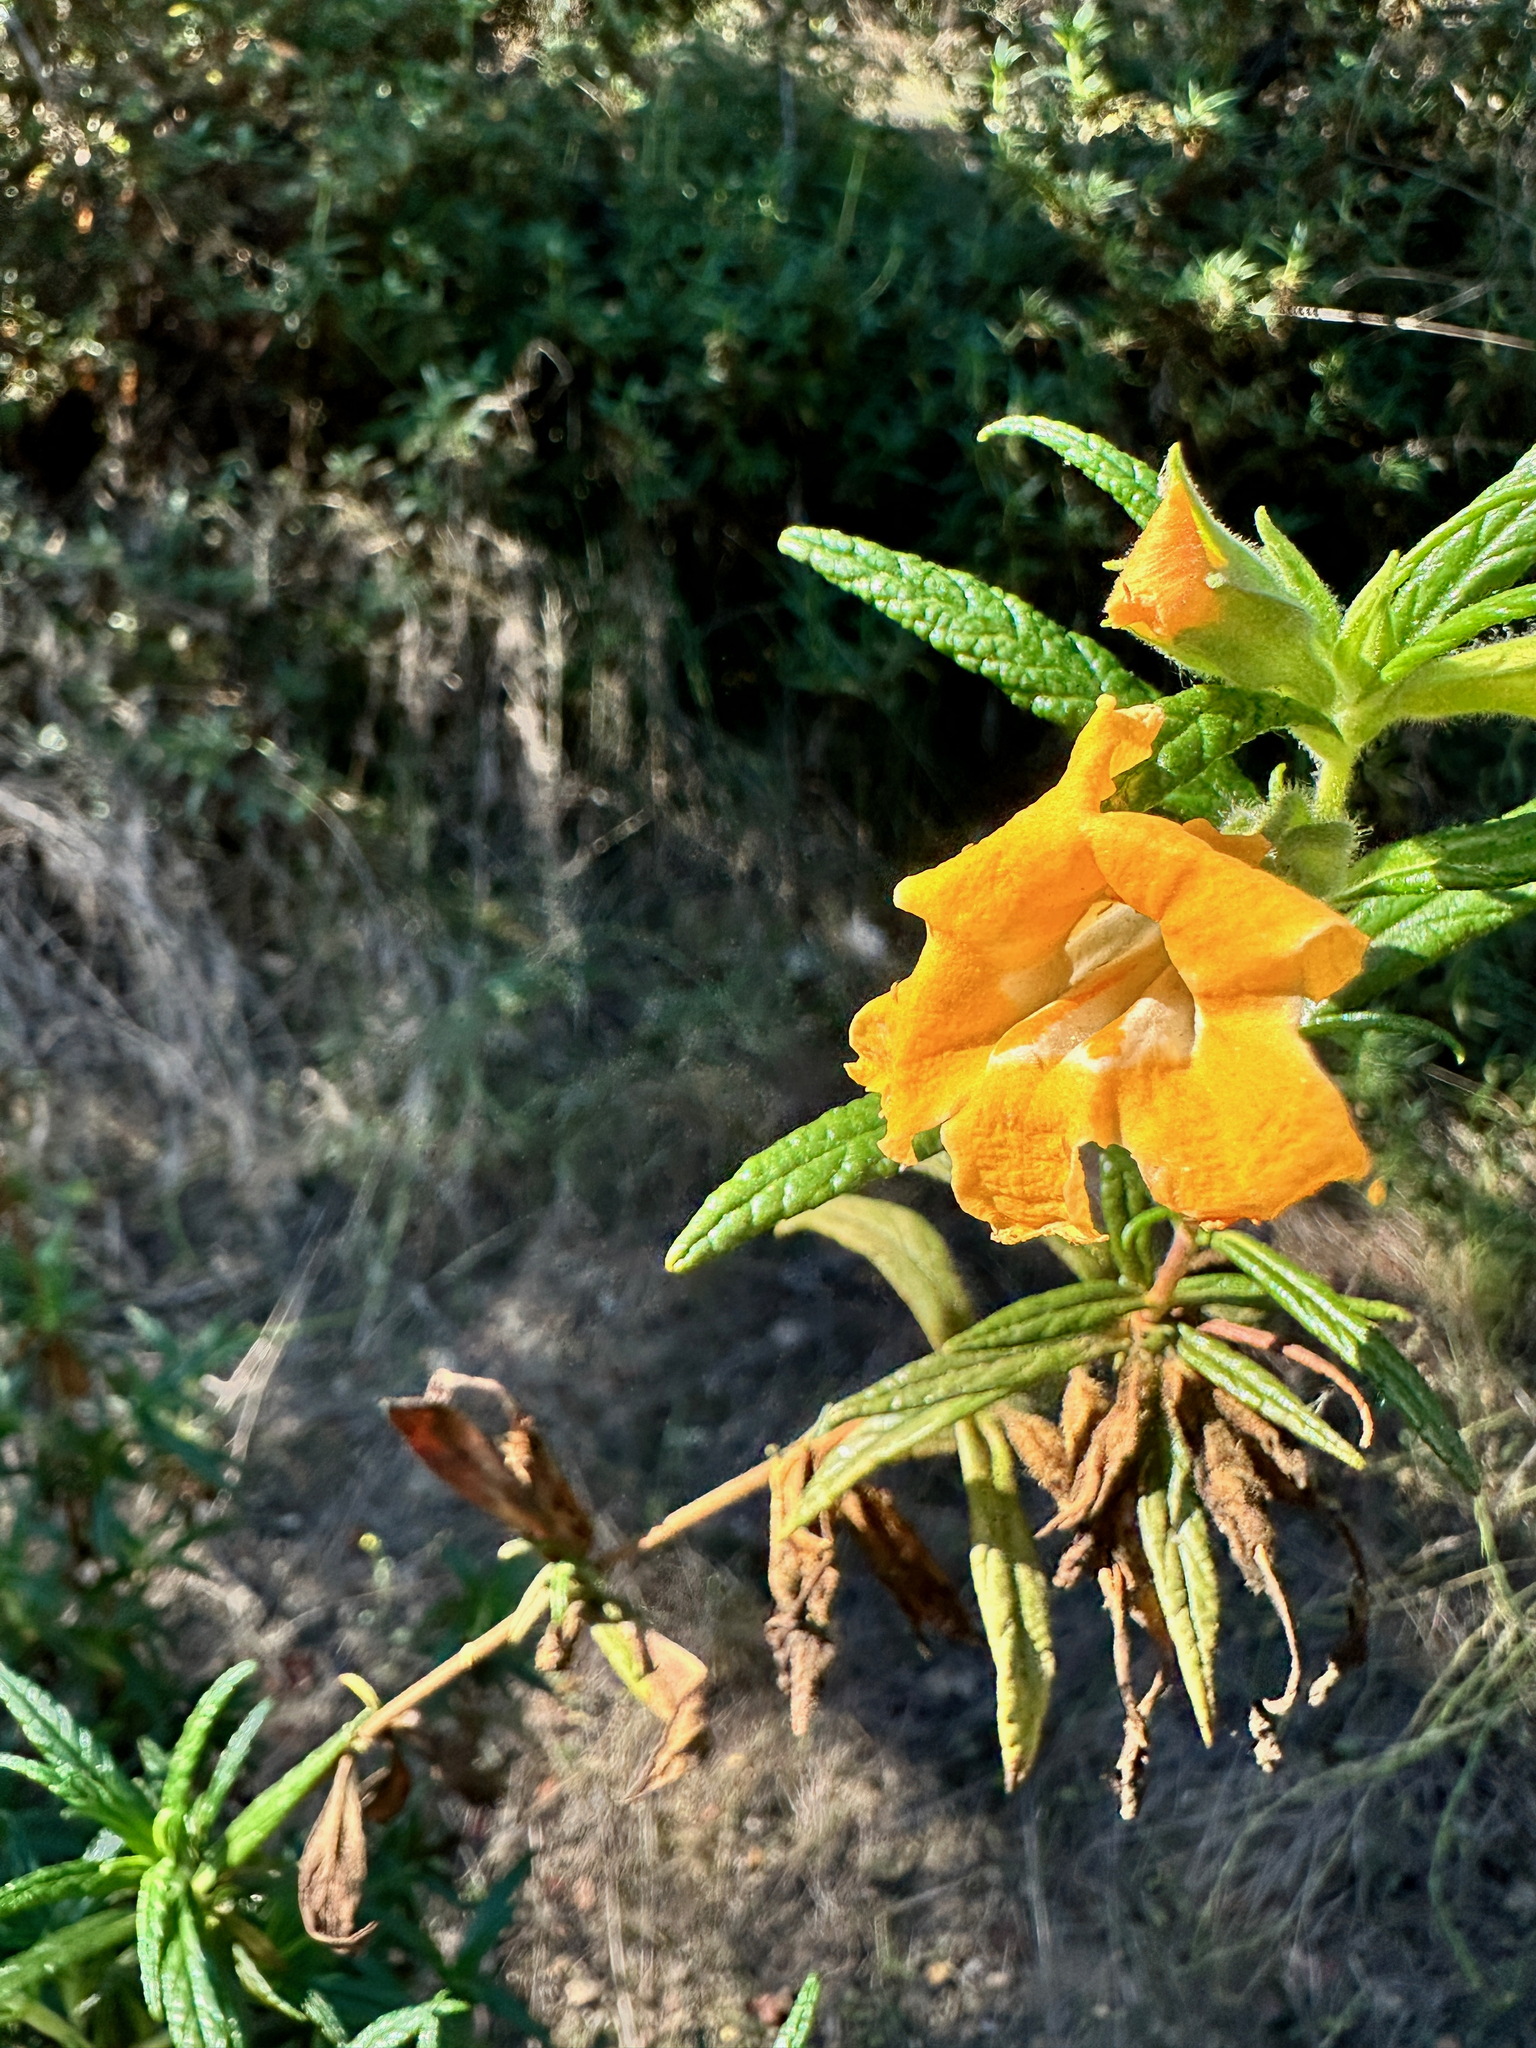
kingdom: Plantae
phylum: Tracheophyta
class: Magnoliopsida
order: Lamiales
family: Phrymaceae
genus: Diplacus
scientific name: Diplacus longiflorus
